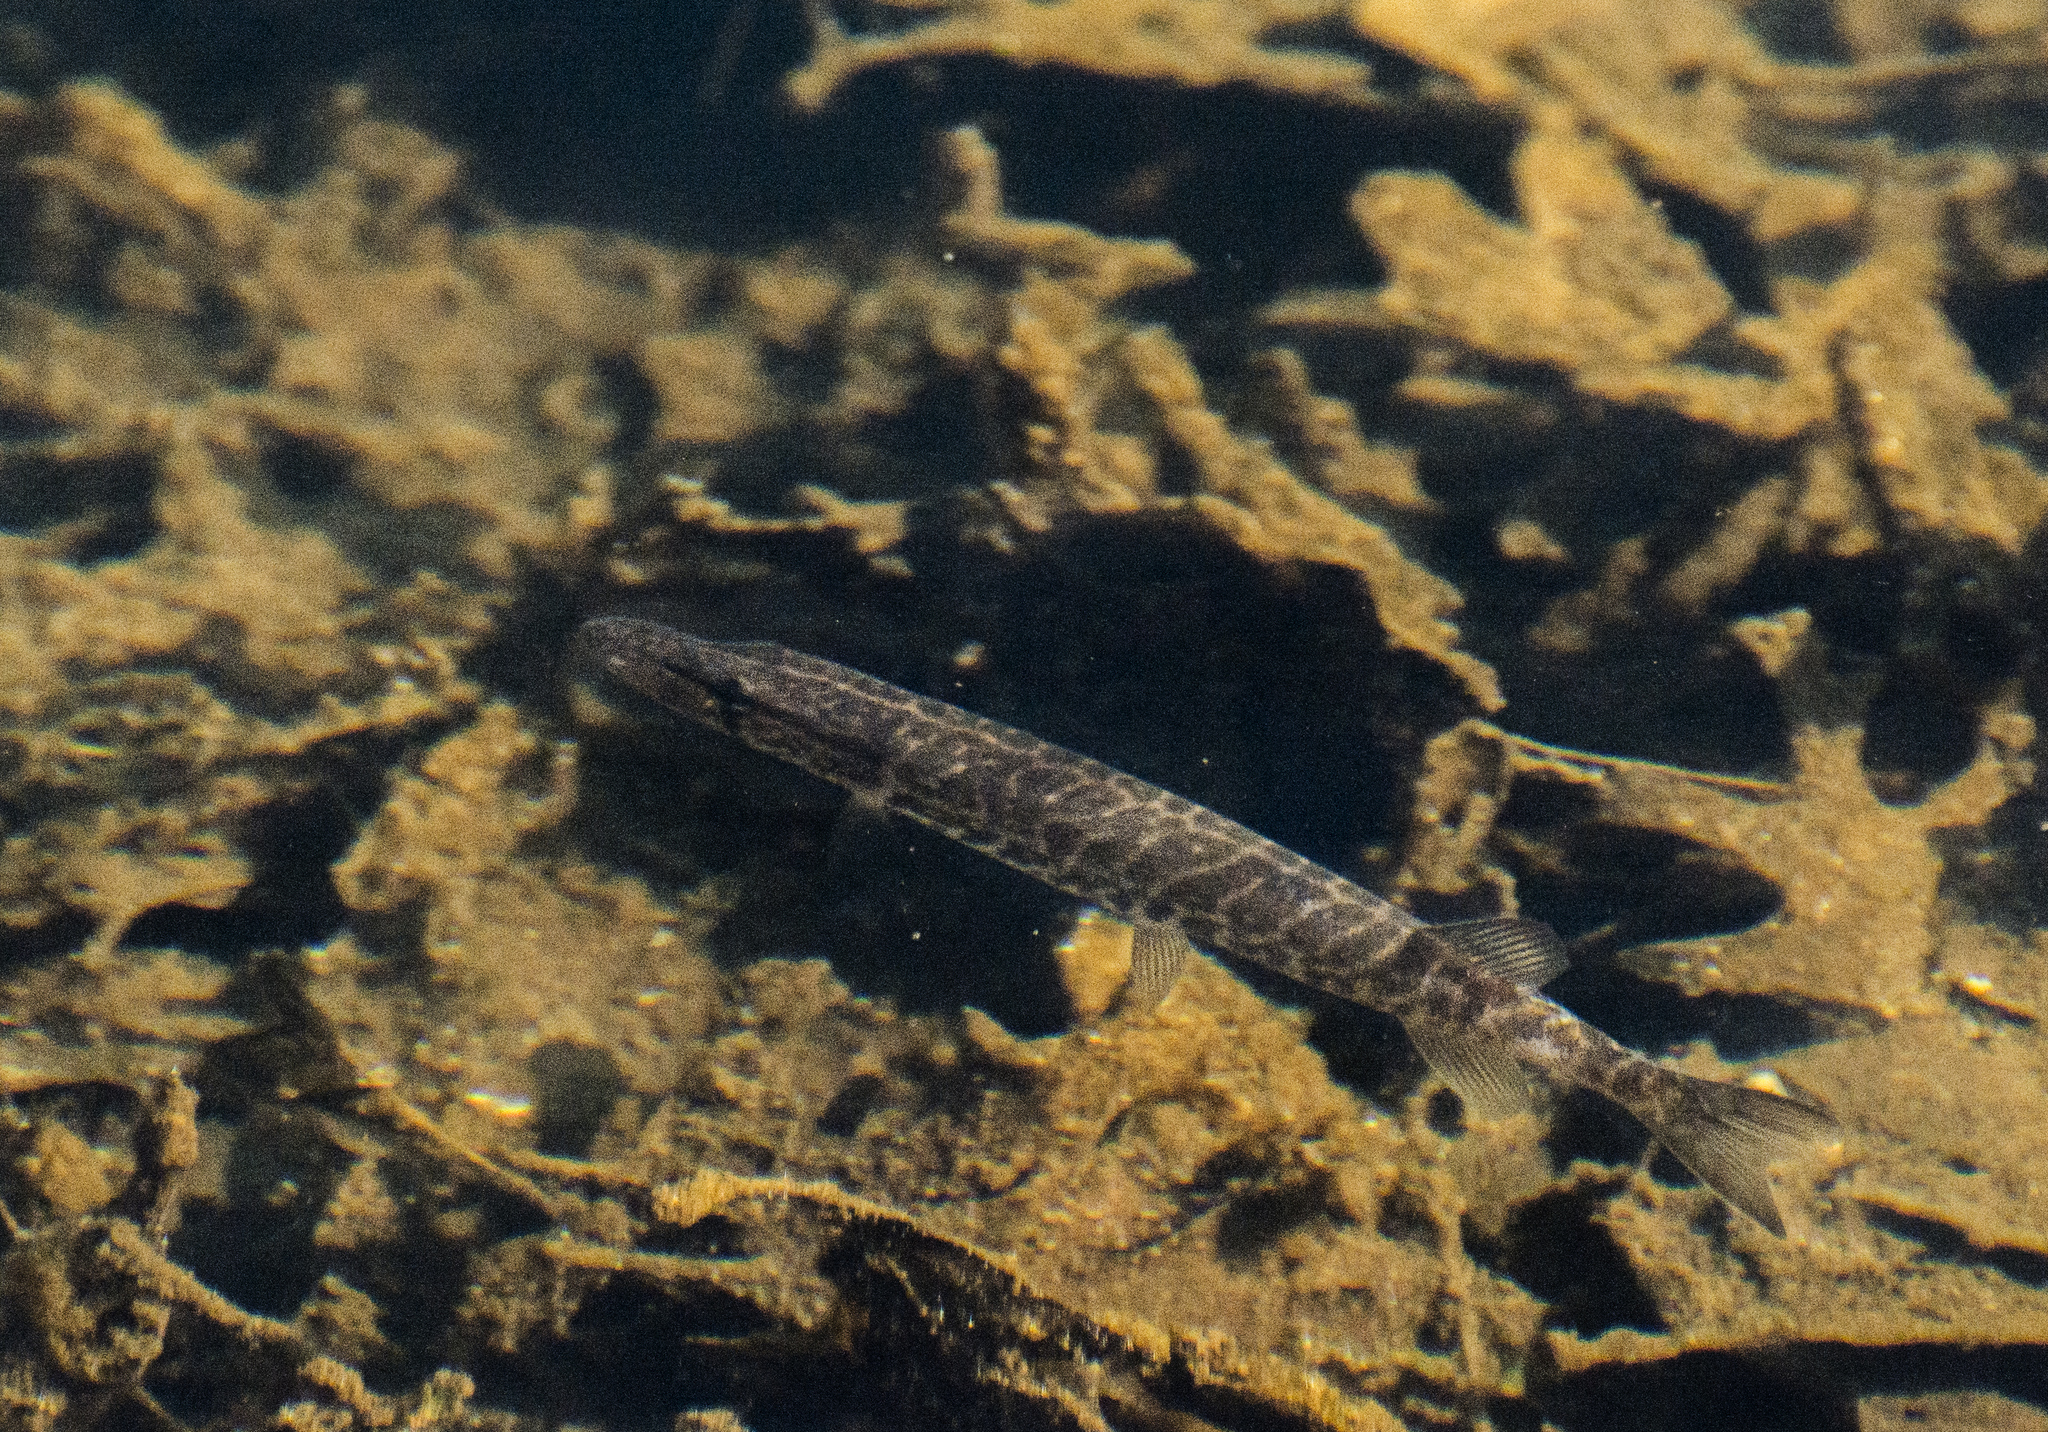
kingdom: Animalia
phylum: Chordata
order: Esociformes
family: Esocidae
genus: Esox
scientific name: Esox americanus
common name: Redfin pickerel
